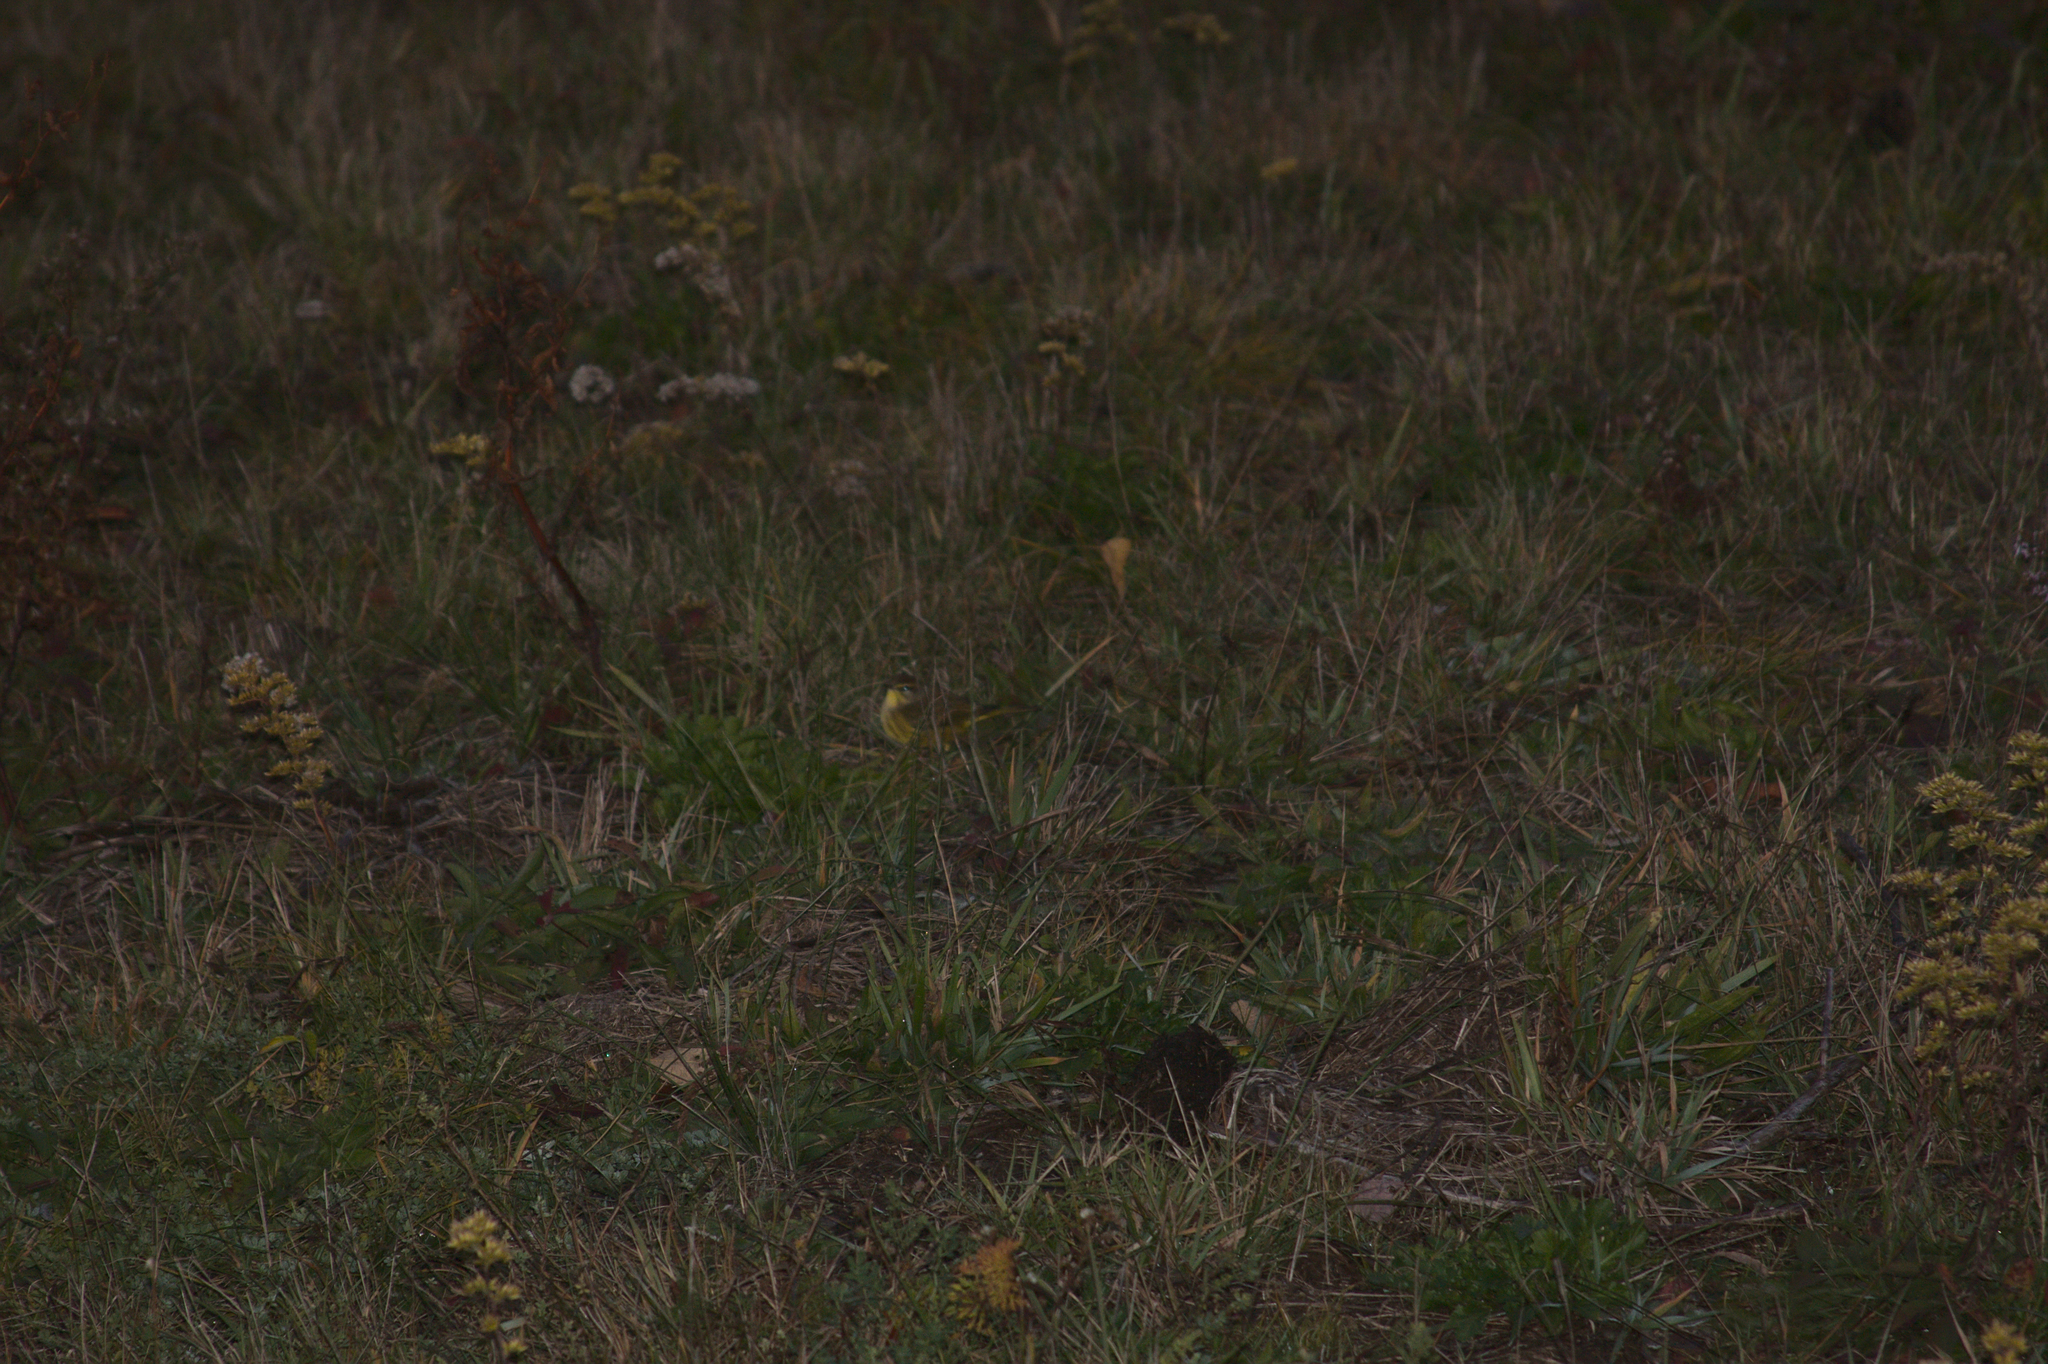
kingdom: Animalia
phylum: Chordata
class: Aves
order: Passeriformes
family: Parulidae
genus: Setophaga
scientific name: Setophaga palmarum
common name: Palm warbler
